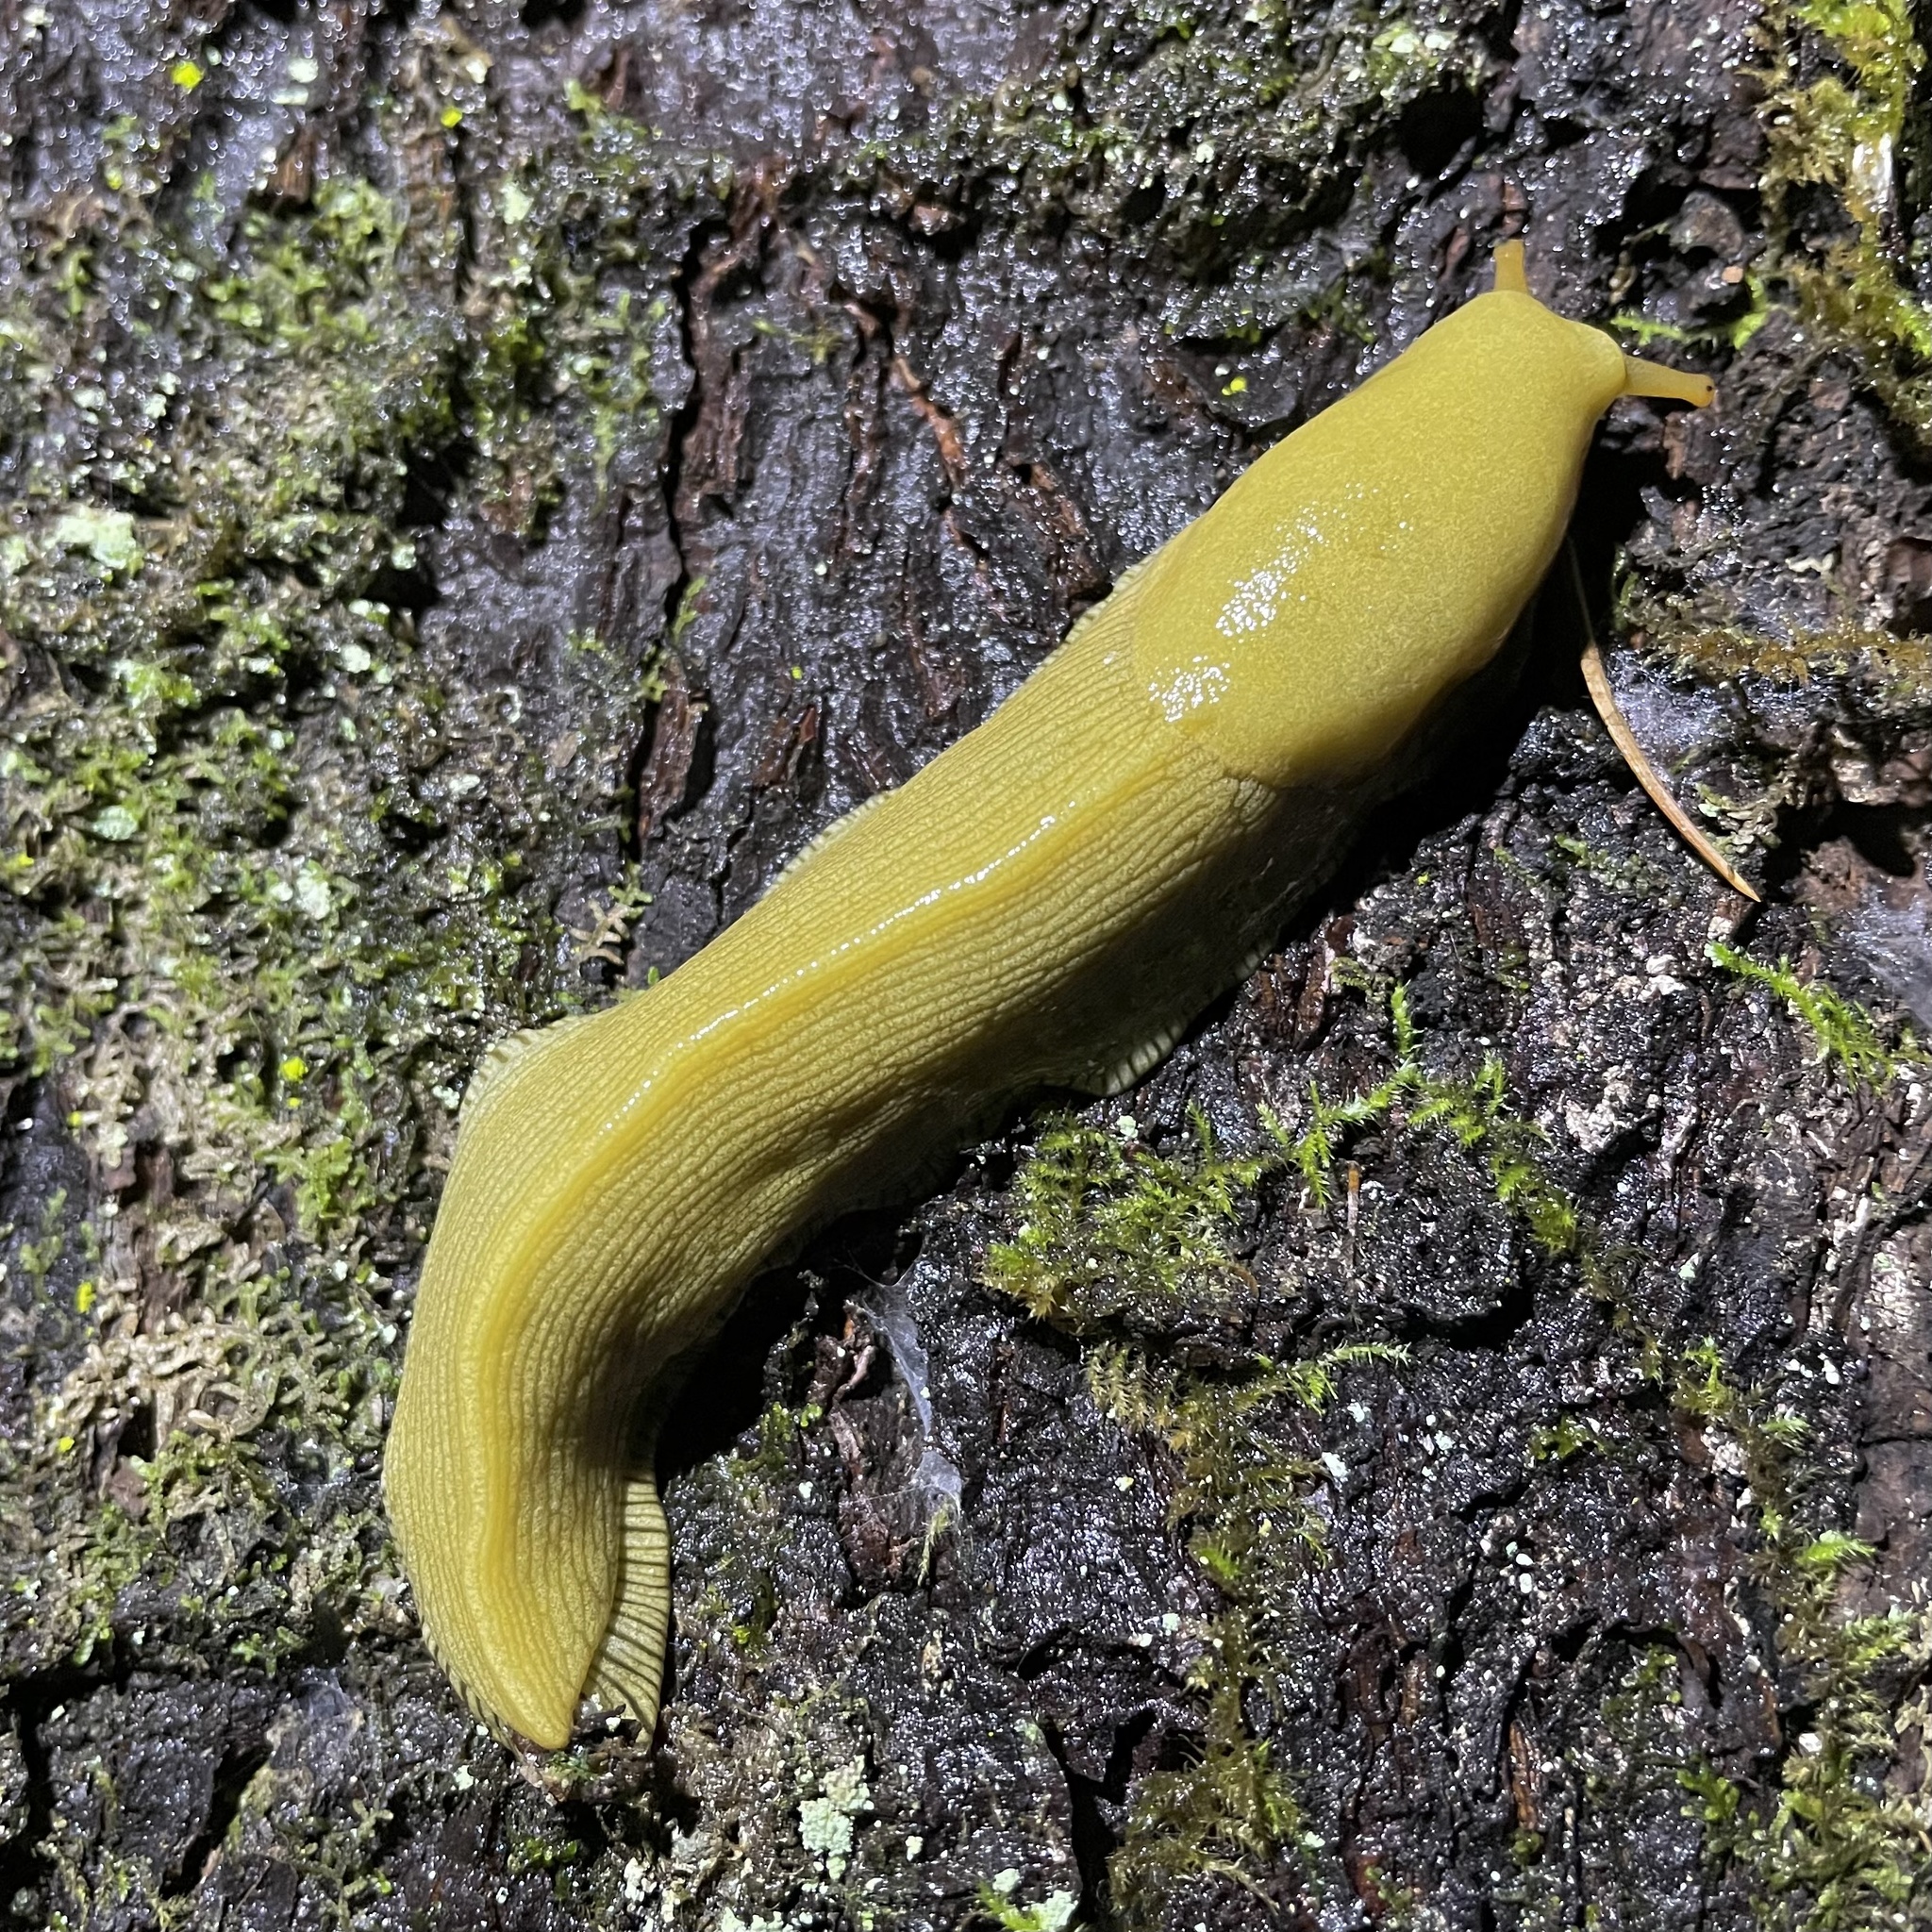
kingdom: Animalia
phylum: Mollusca
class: Gastropoda
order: Stylommatophora
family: Ariolimacidae
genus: Ariolimax
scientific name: Ariolimax columbianus
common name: Pacific banana slug
